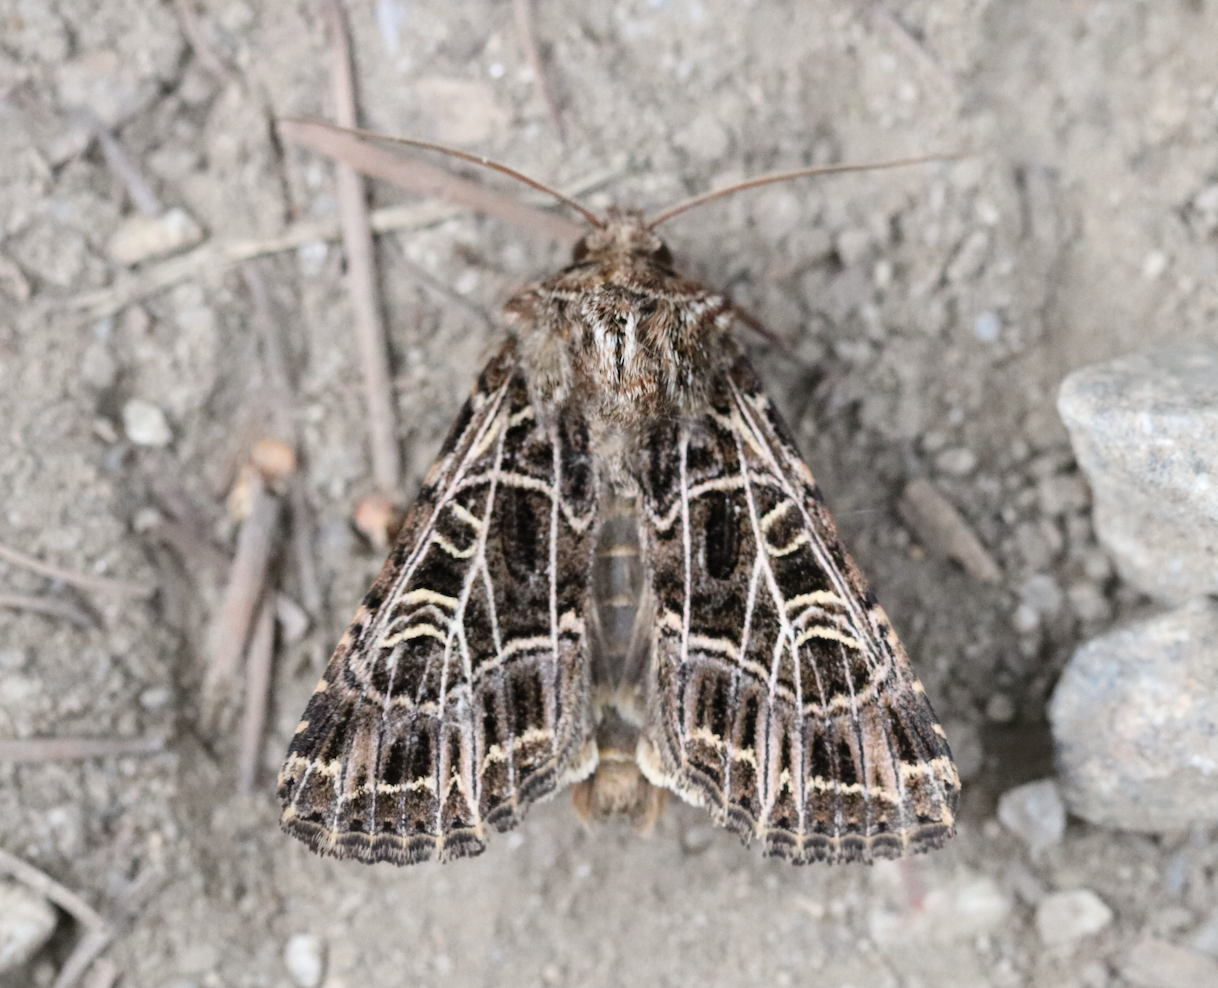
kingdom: Animalia
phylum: Arthropoda
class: Insecta
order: Lepidoptera
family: Noctuidae
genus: Sideridis
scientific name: Sideridis reticulata
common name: Bordered gothic
